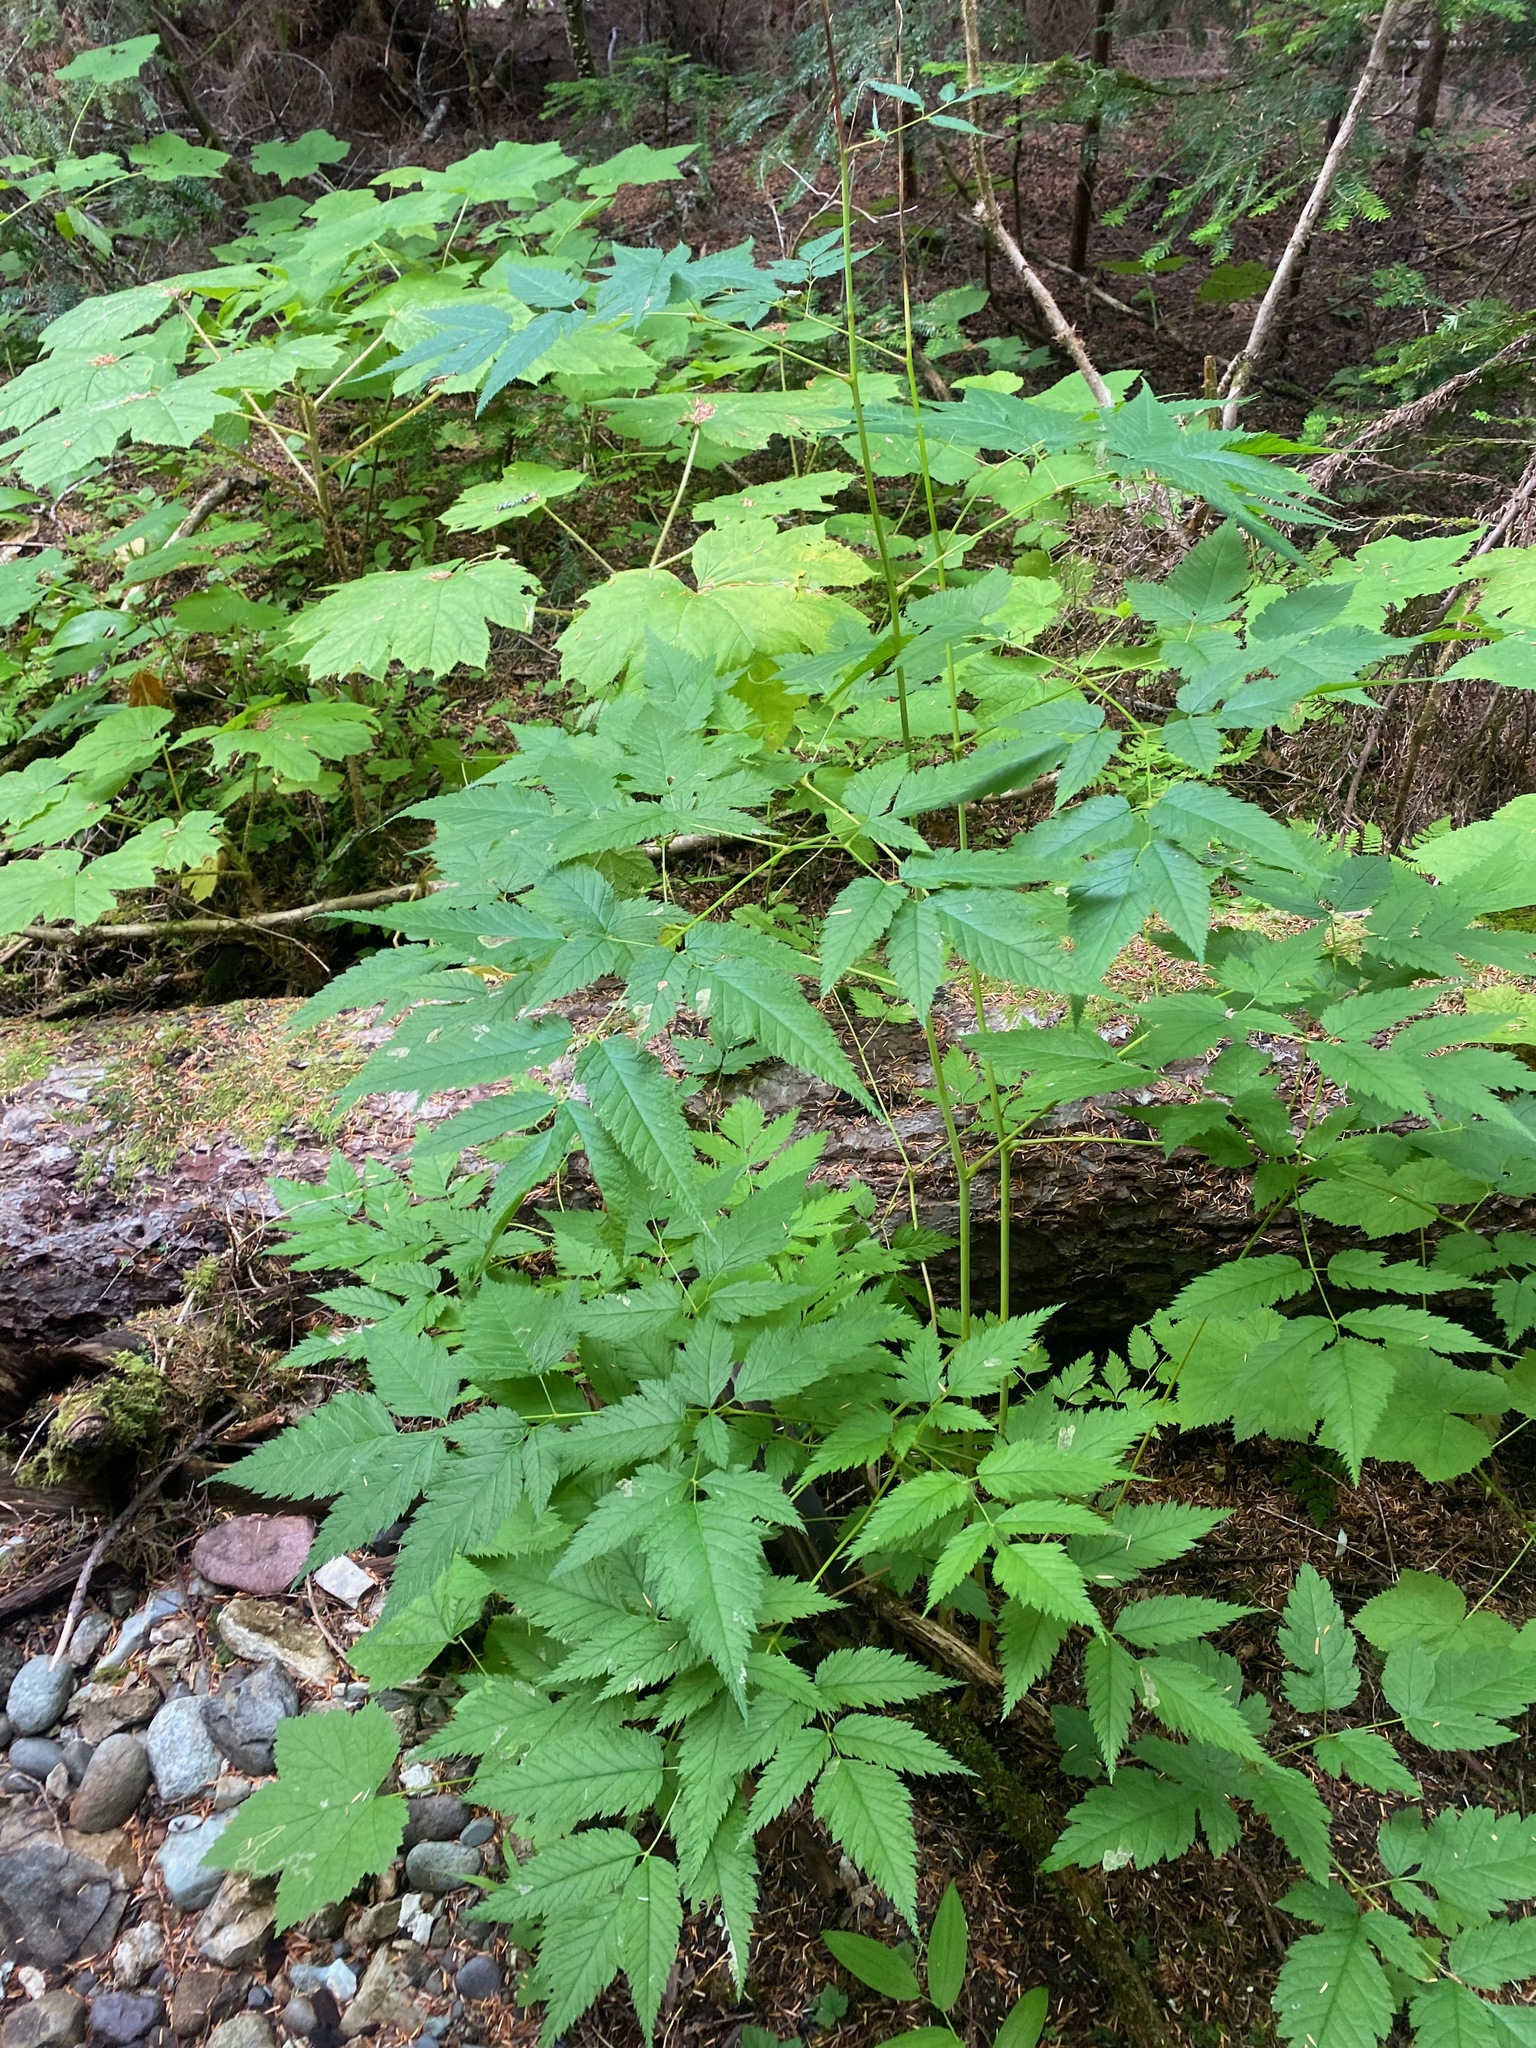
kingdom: Plantae
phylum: Tracheophyta
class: Magnoliopsida
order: Rosales
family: Rosaceae
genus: Aruncus
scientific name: Aruncus dioicus
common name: Buck's-beard
